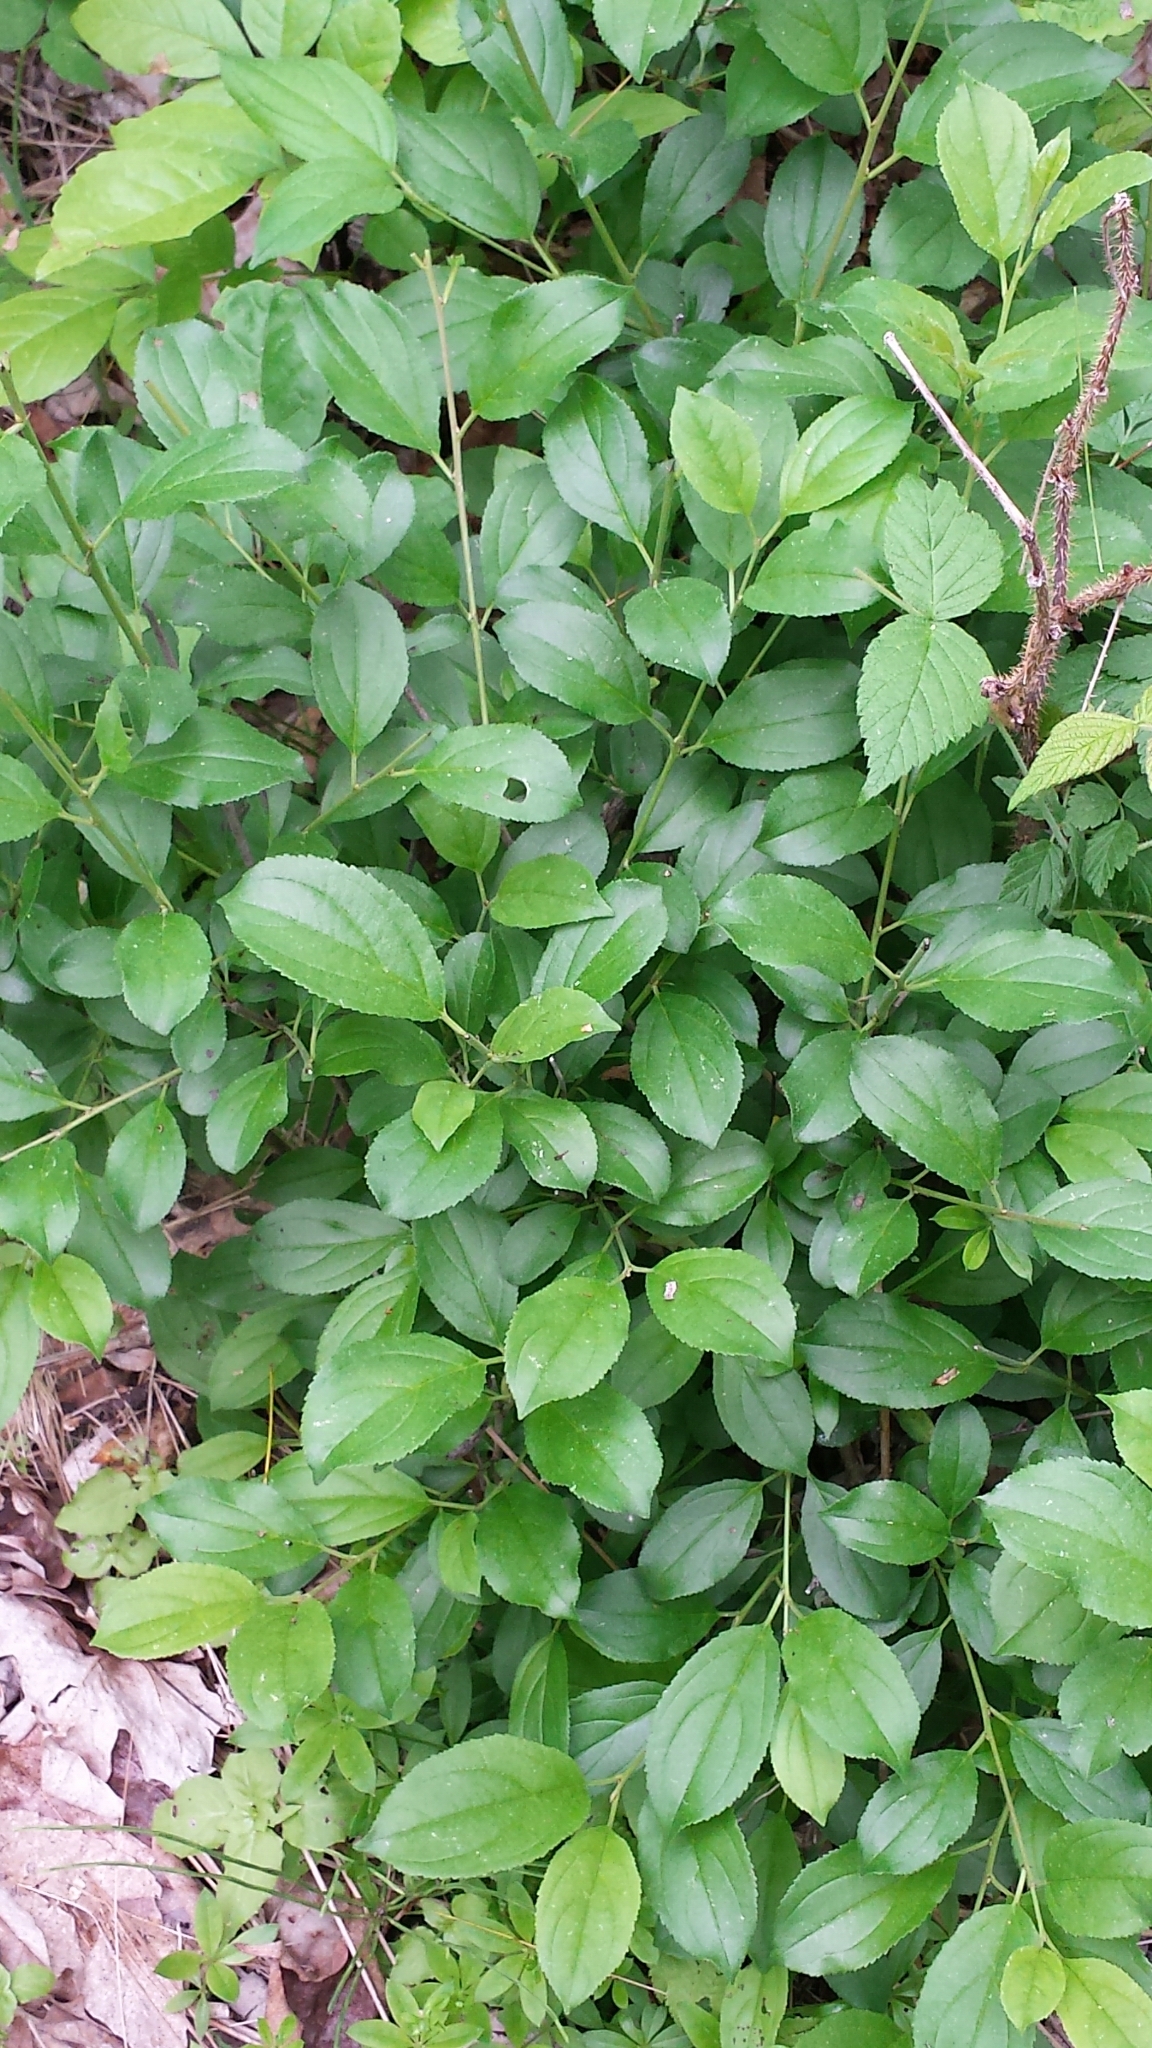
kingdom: Plantae
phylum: Tracheophyta
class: Magnoliopsida
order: Rosales
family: Rhamnaceae
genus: Rhamnus
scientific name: Rhamnus cathartica
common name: Common buckthorn
